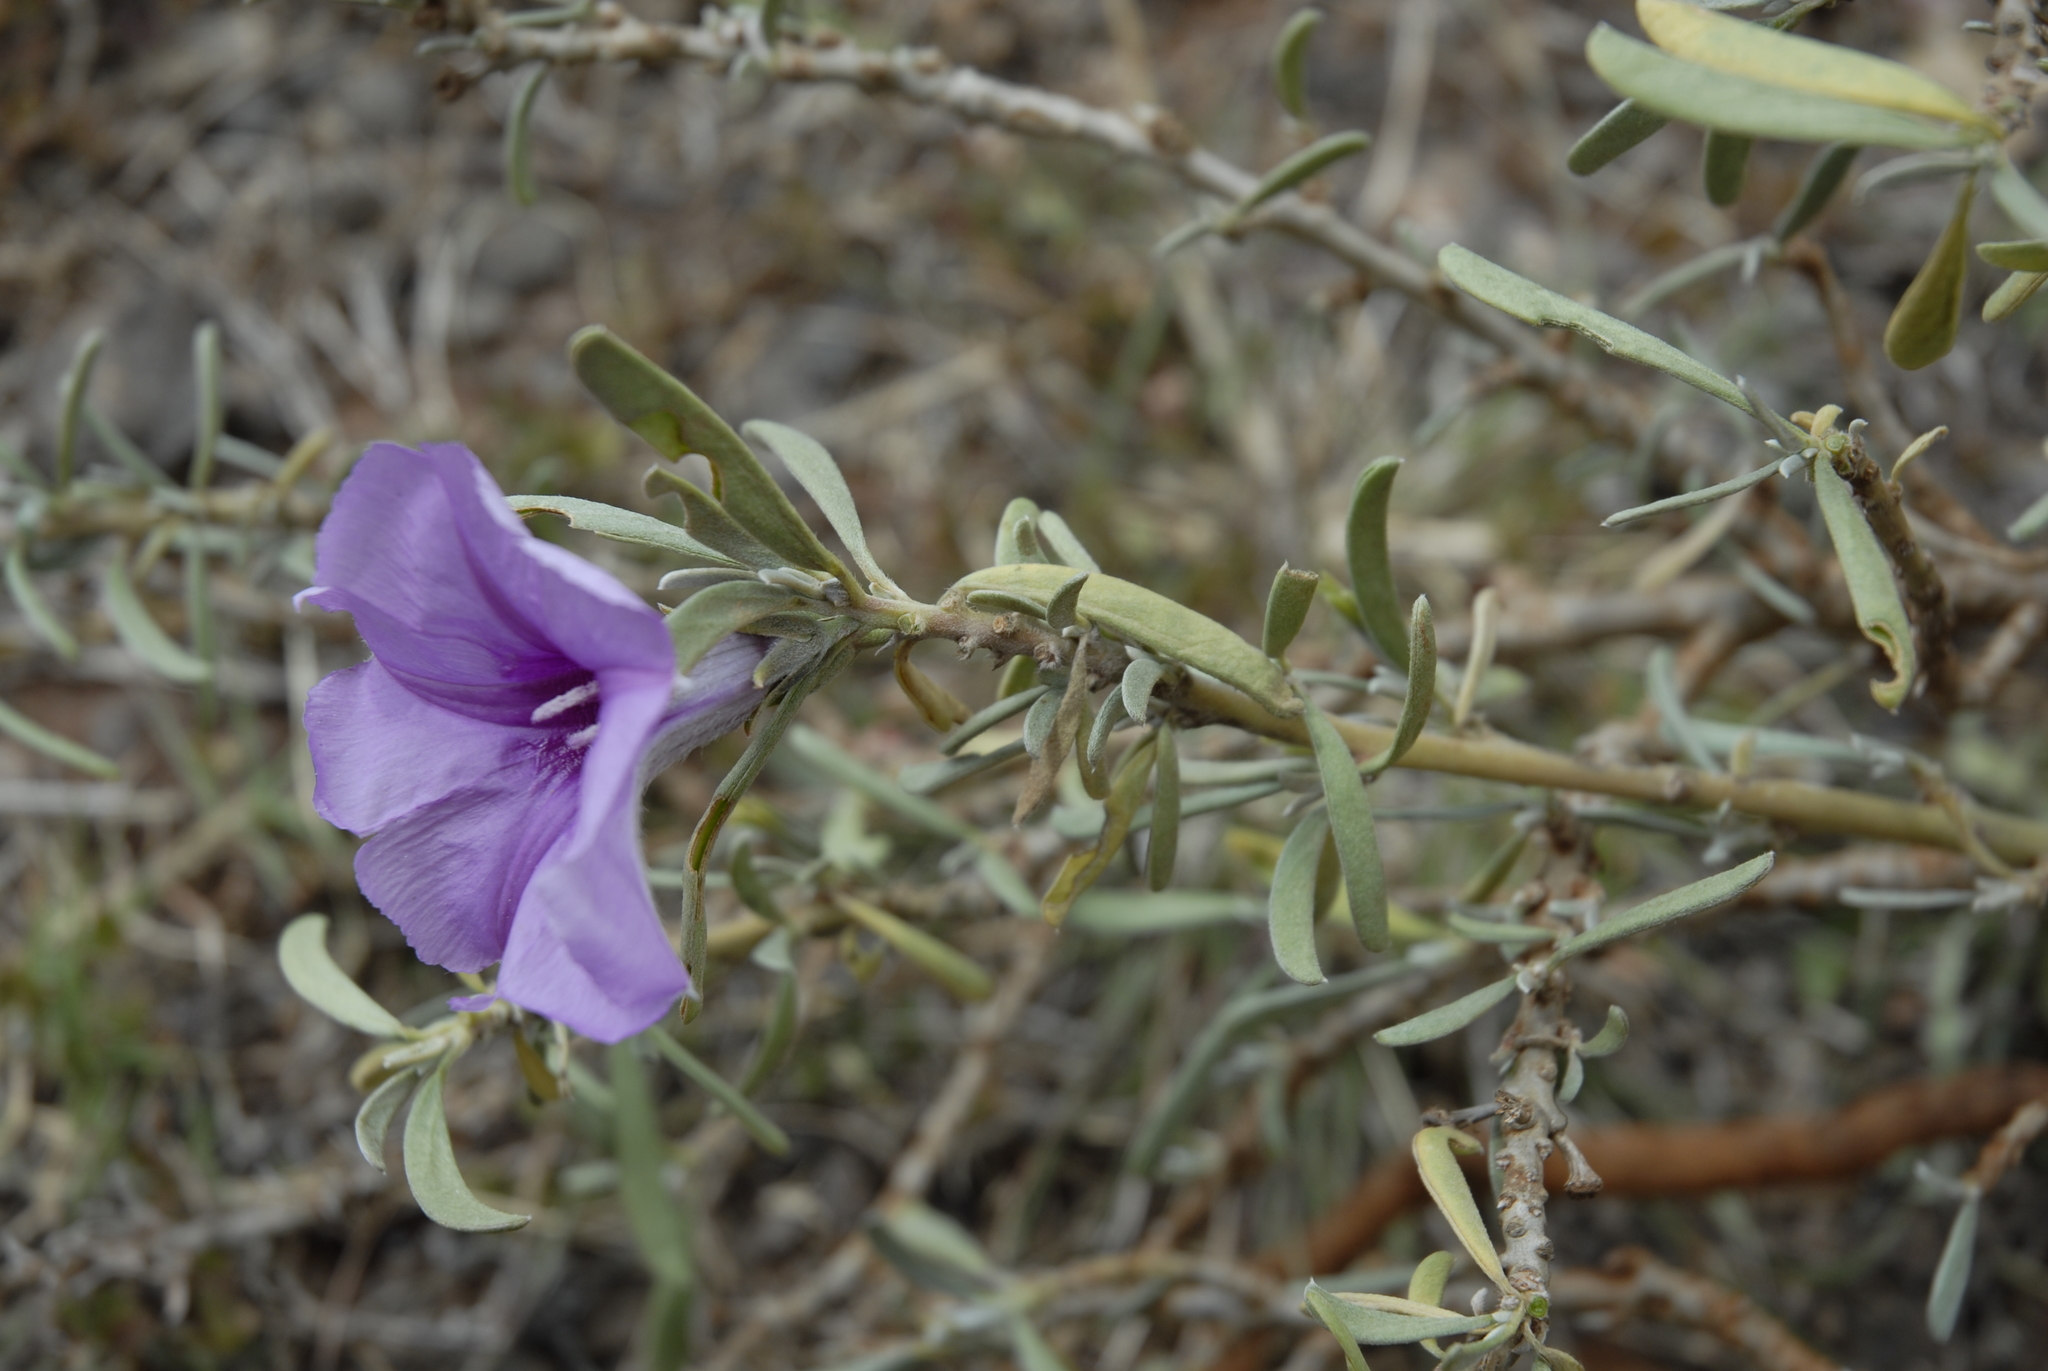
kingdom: Plantae
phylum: Tracheophyta
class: Magnoliopsida
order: Solanales
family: Convolvulaceae
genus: Cladostigma
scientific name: Cladostigma hildebrandtioides
